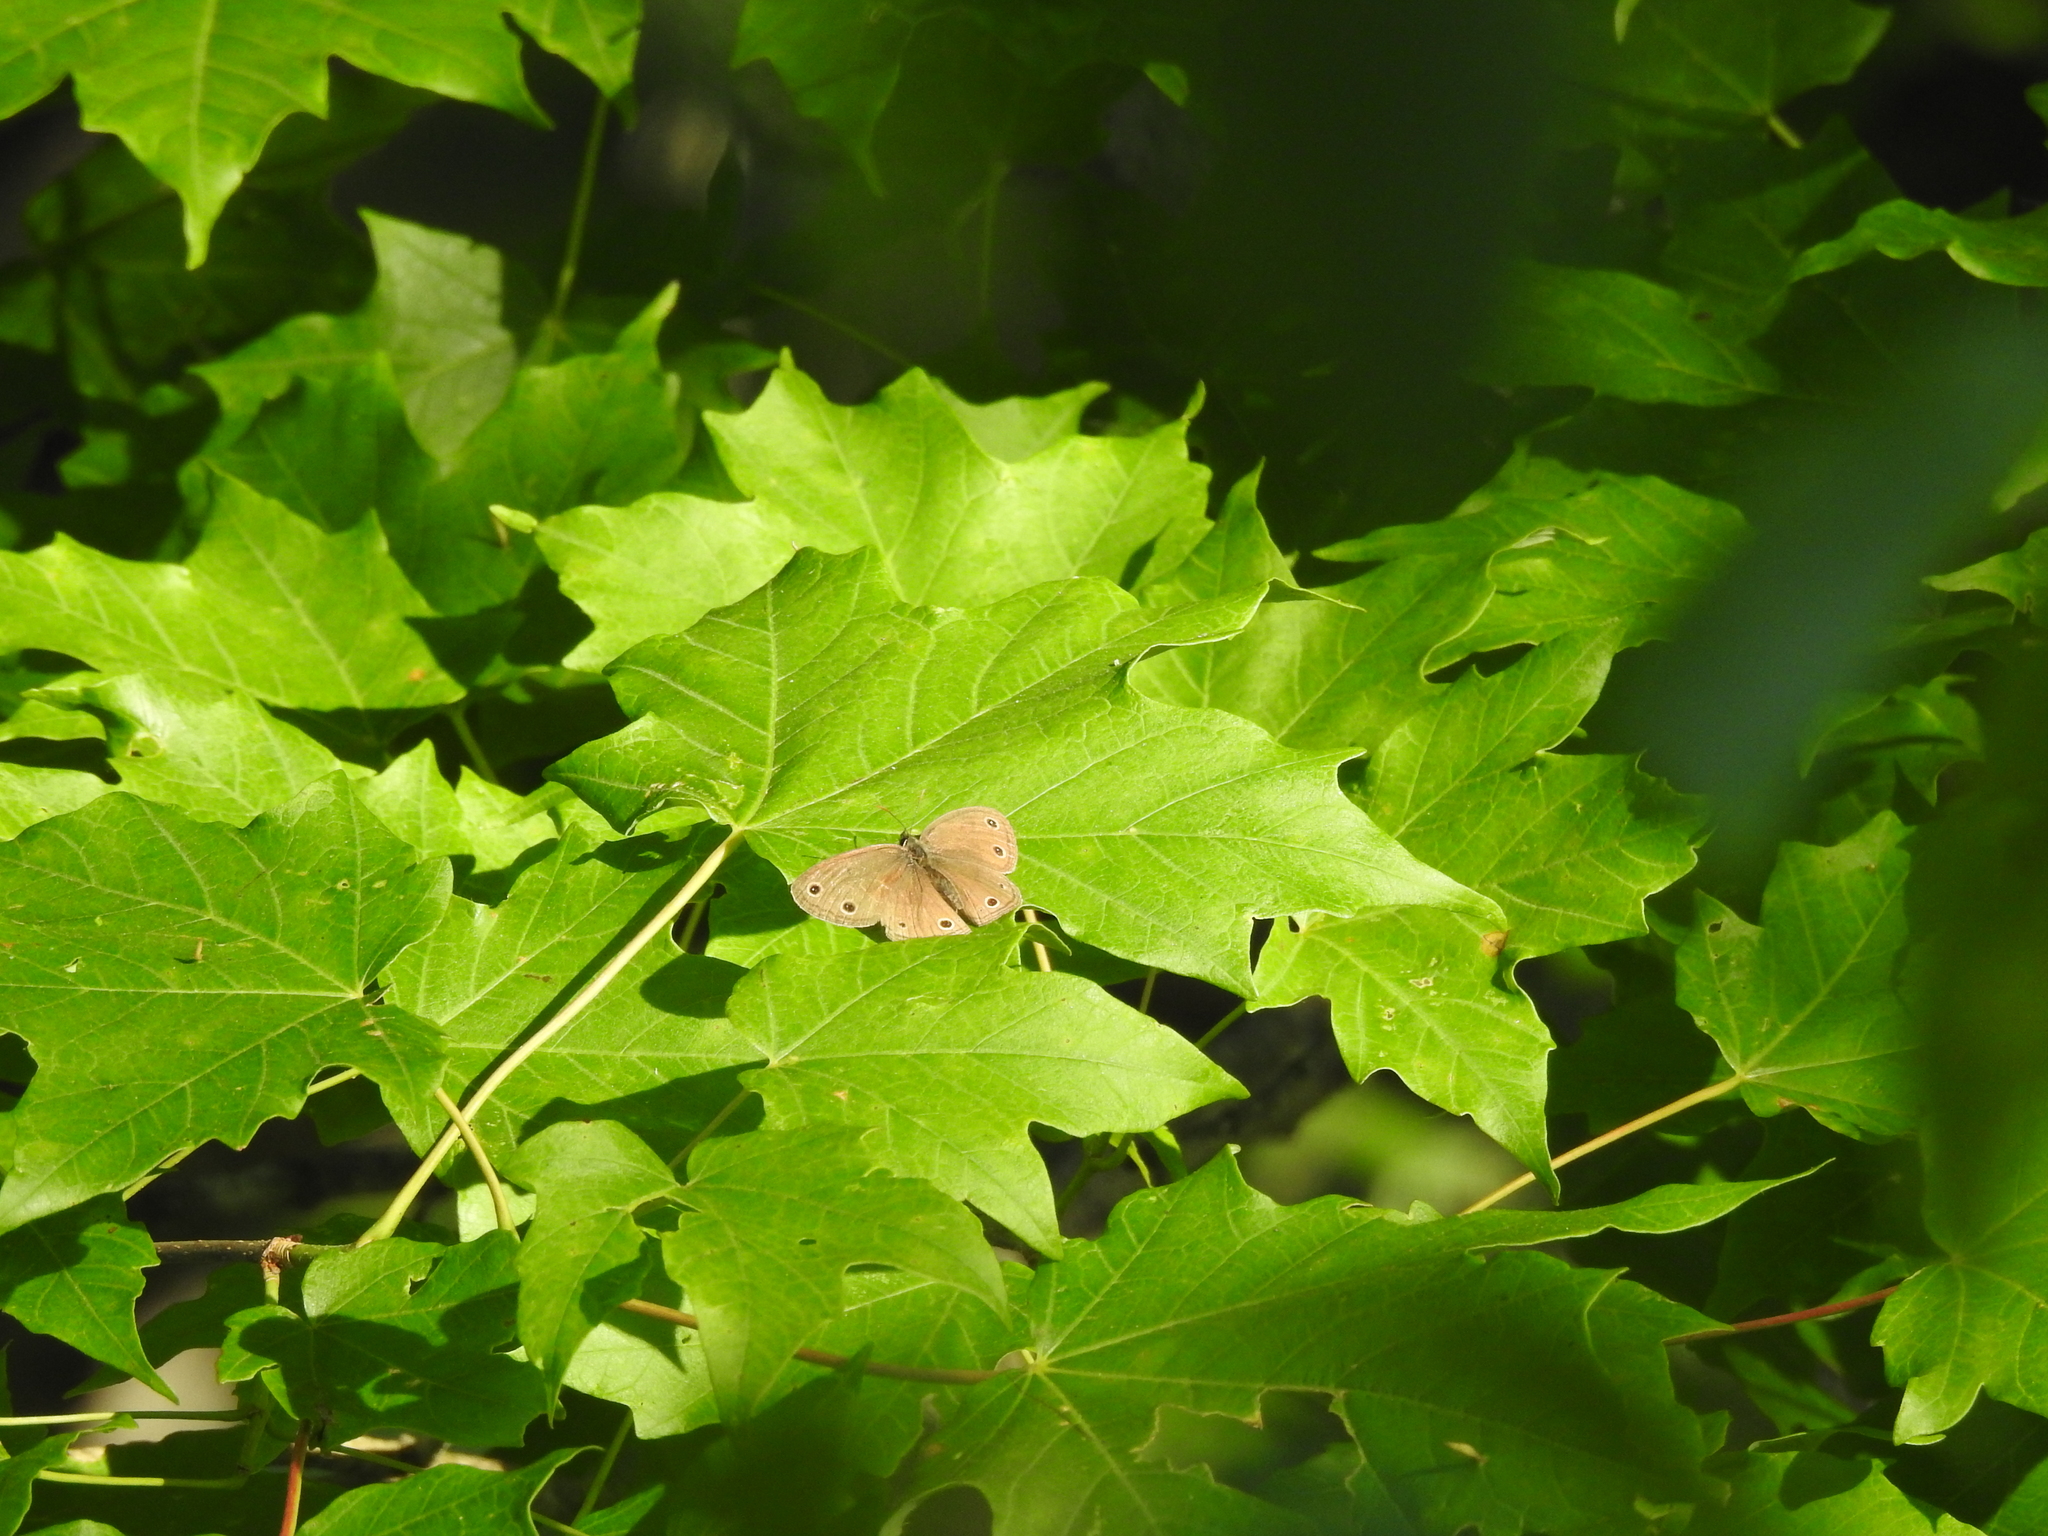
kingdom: Animalia
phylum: Arthropoda
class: Insecta
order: Lepidoptera
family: Nymphalidae
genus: Euptychia
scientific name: Euptychia cymela
